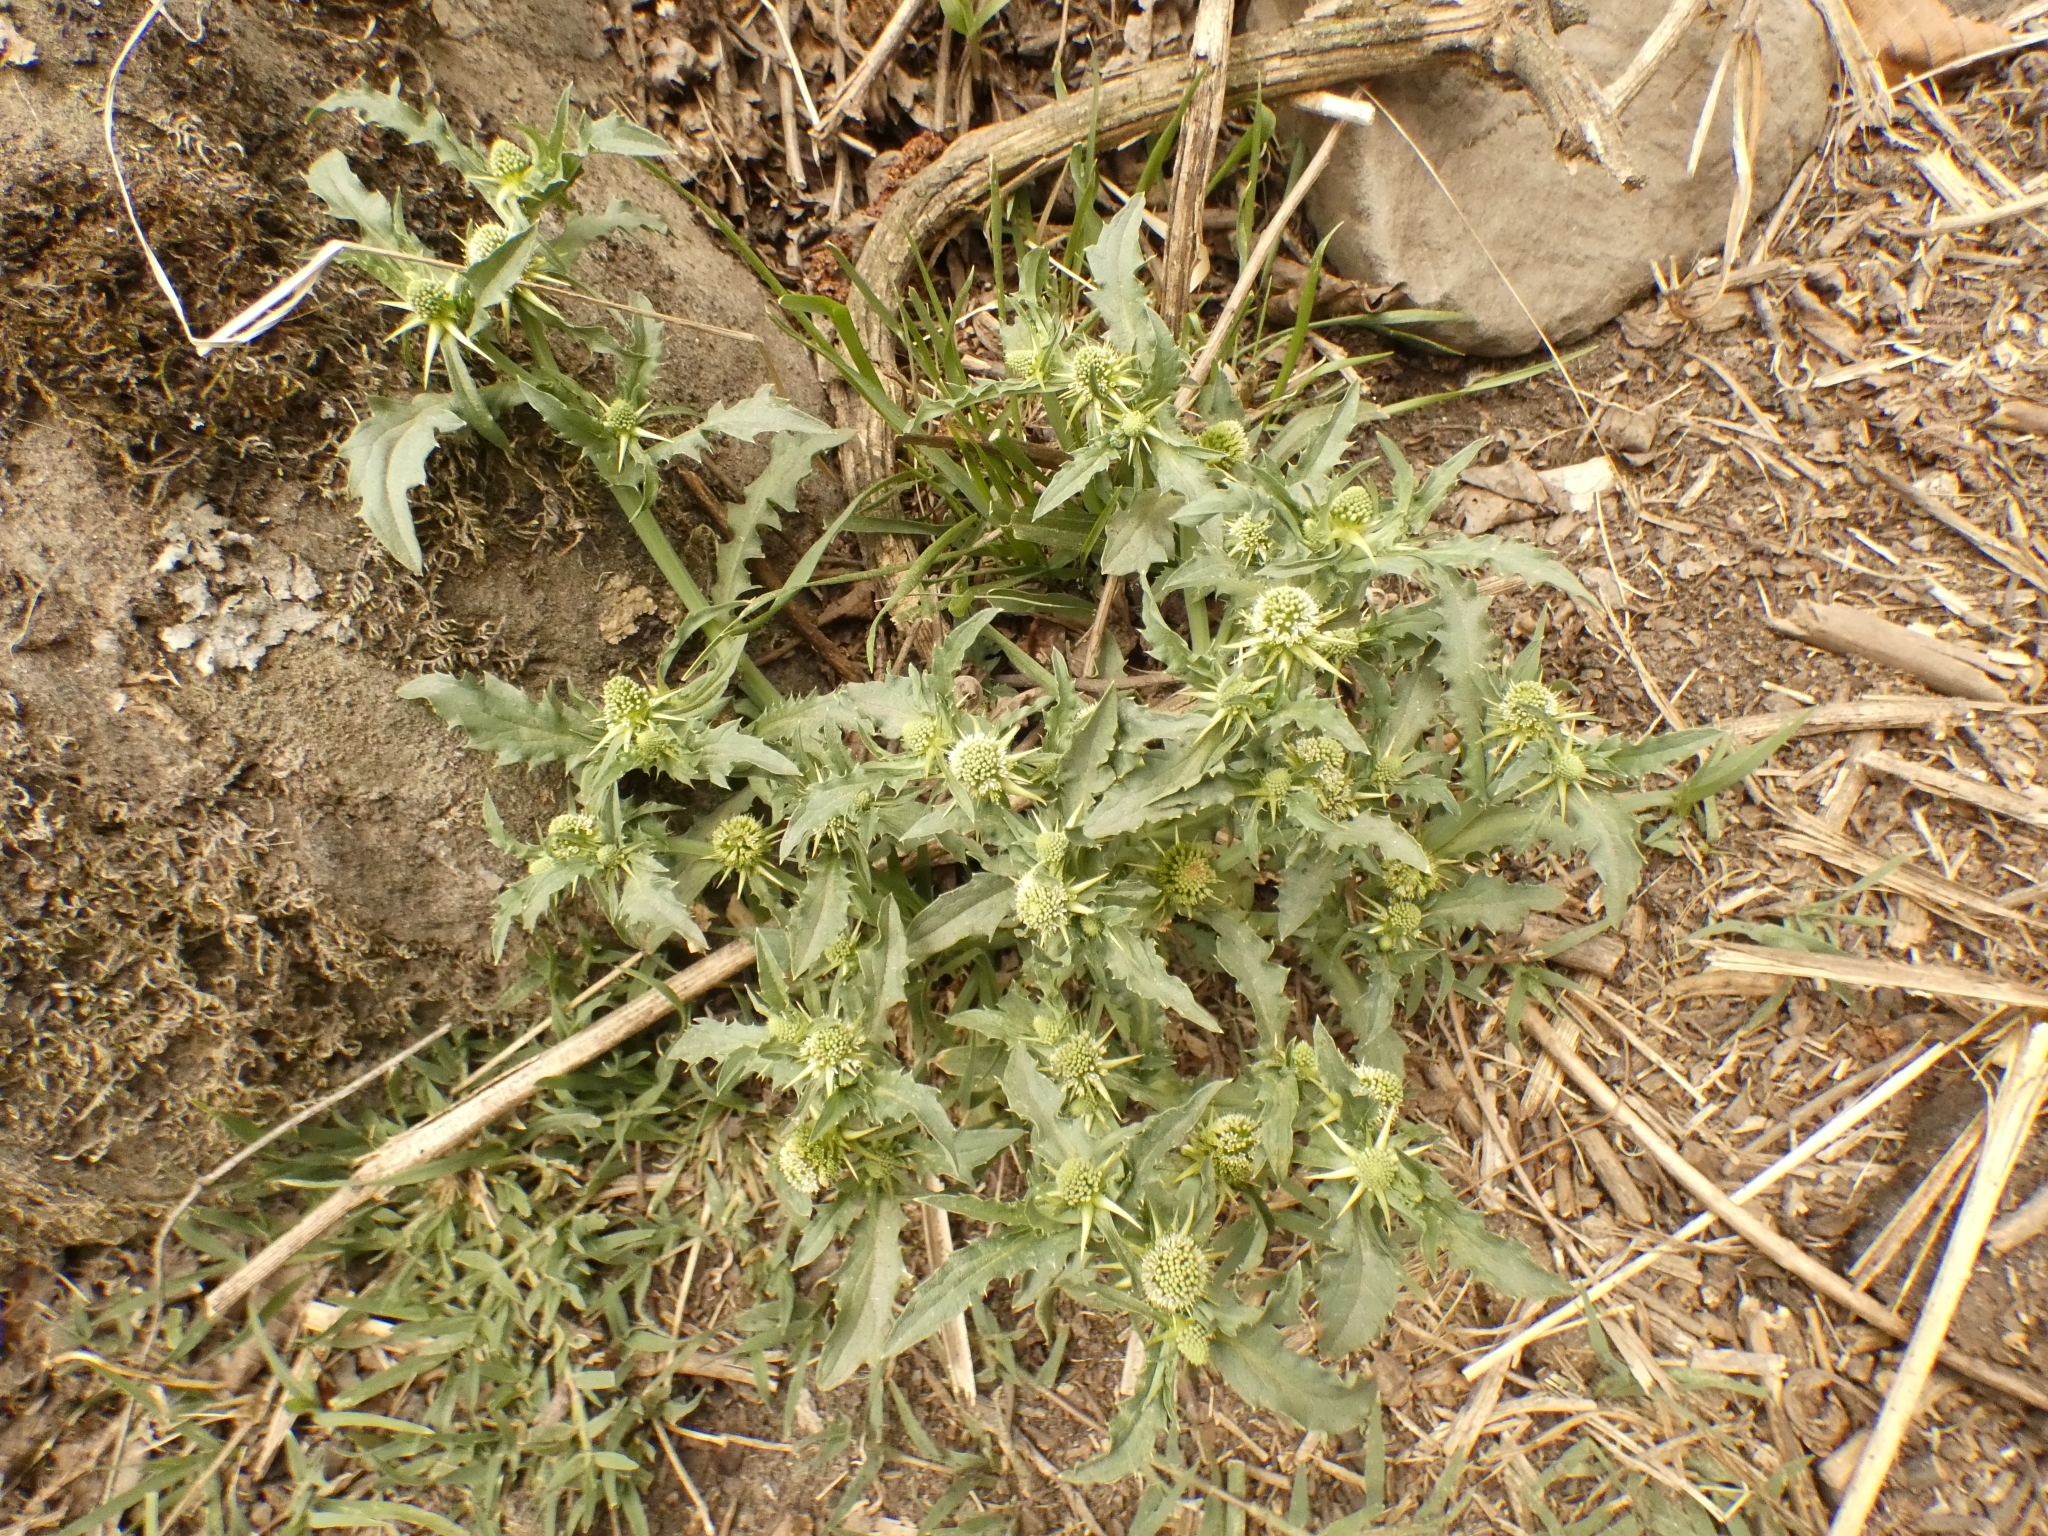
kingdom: Plantae
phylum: Tracheophyta
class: Magnoliopsida
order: Asterales
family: Calyceraceae
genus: Acicarpha
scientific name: Acicarpha tribuloides
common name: Madam gorgon
